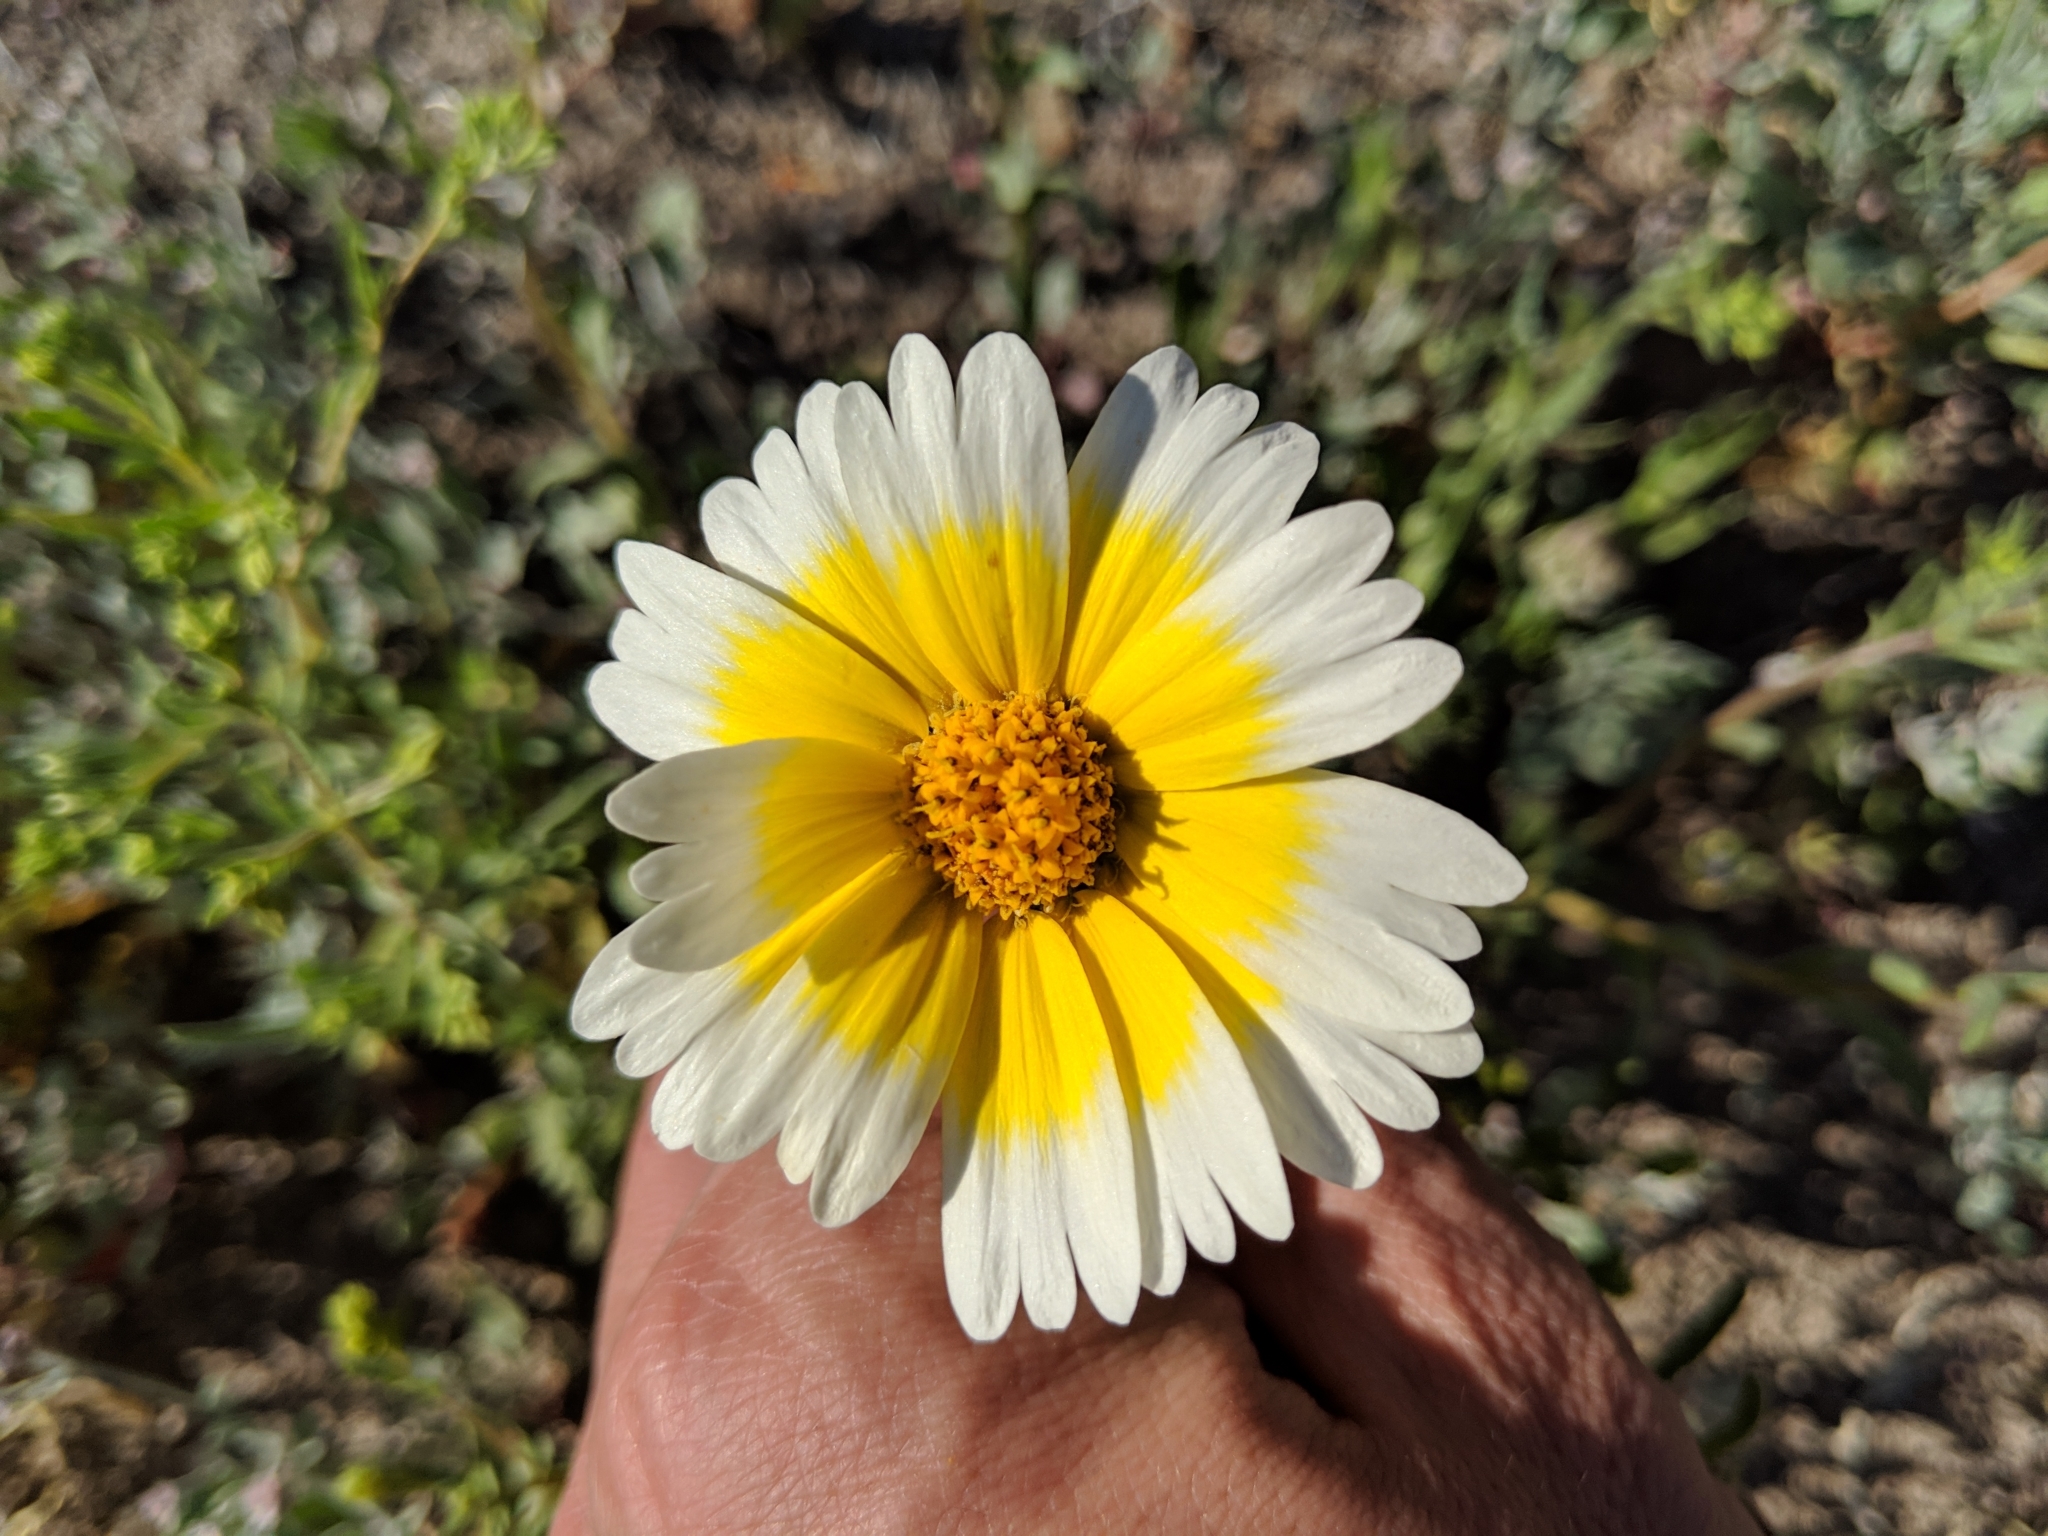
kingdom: Plantae
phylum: Tracheophyta
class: Magnoliopsida
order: Asterales
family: Asteraceae
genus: Layia
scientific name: Layia platyglossa
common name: Tidy-tips
